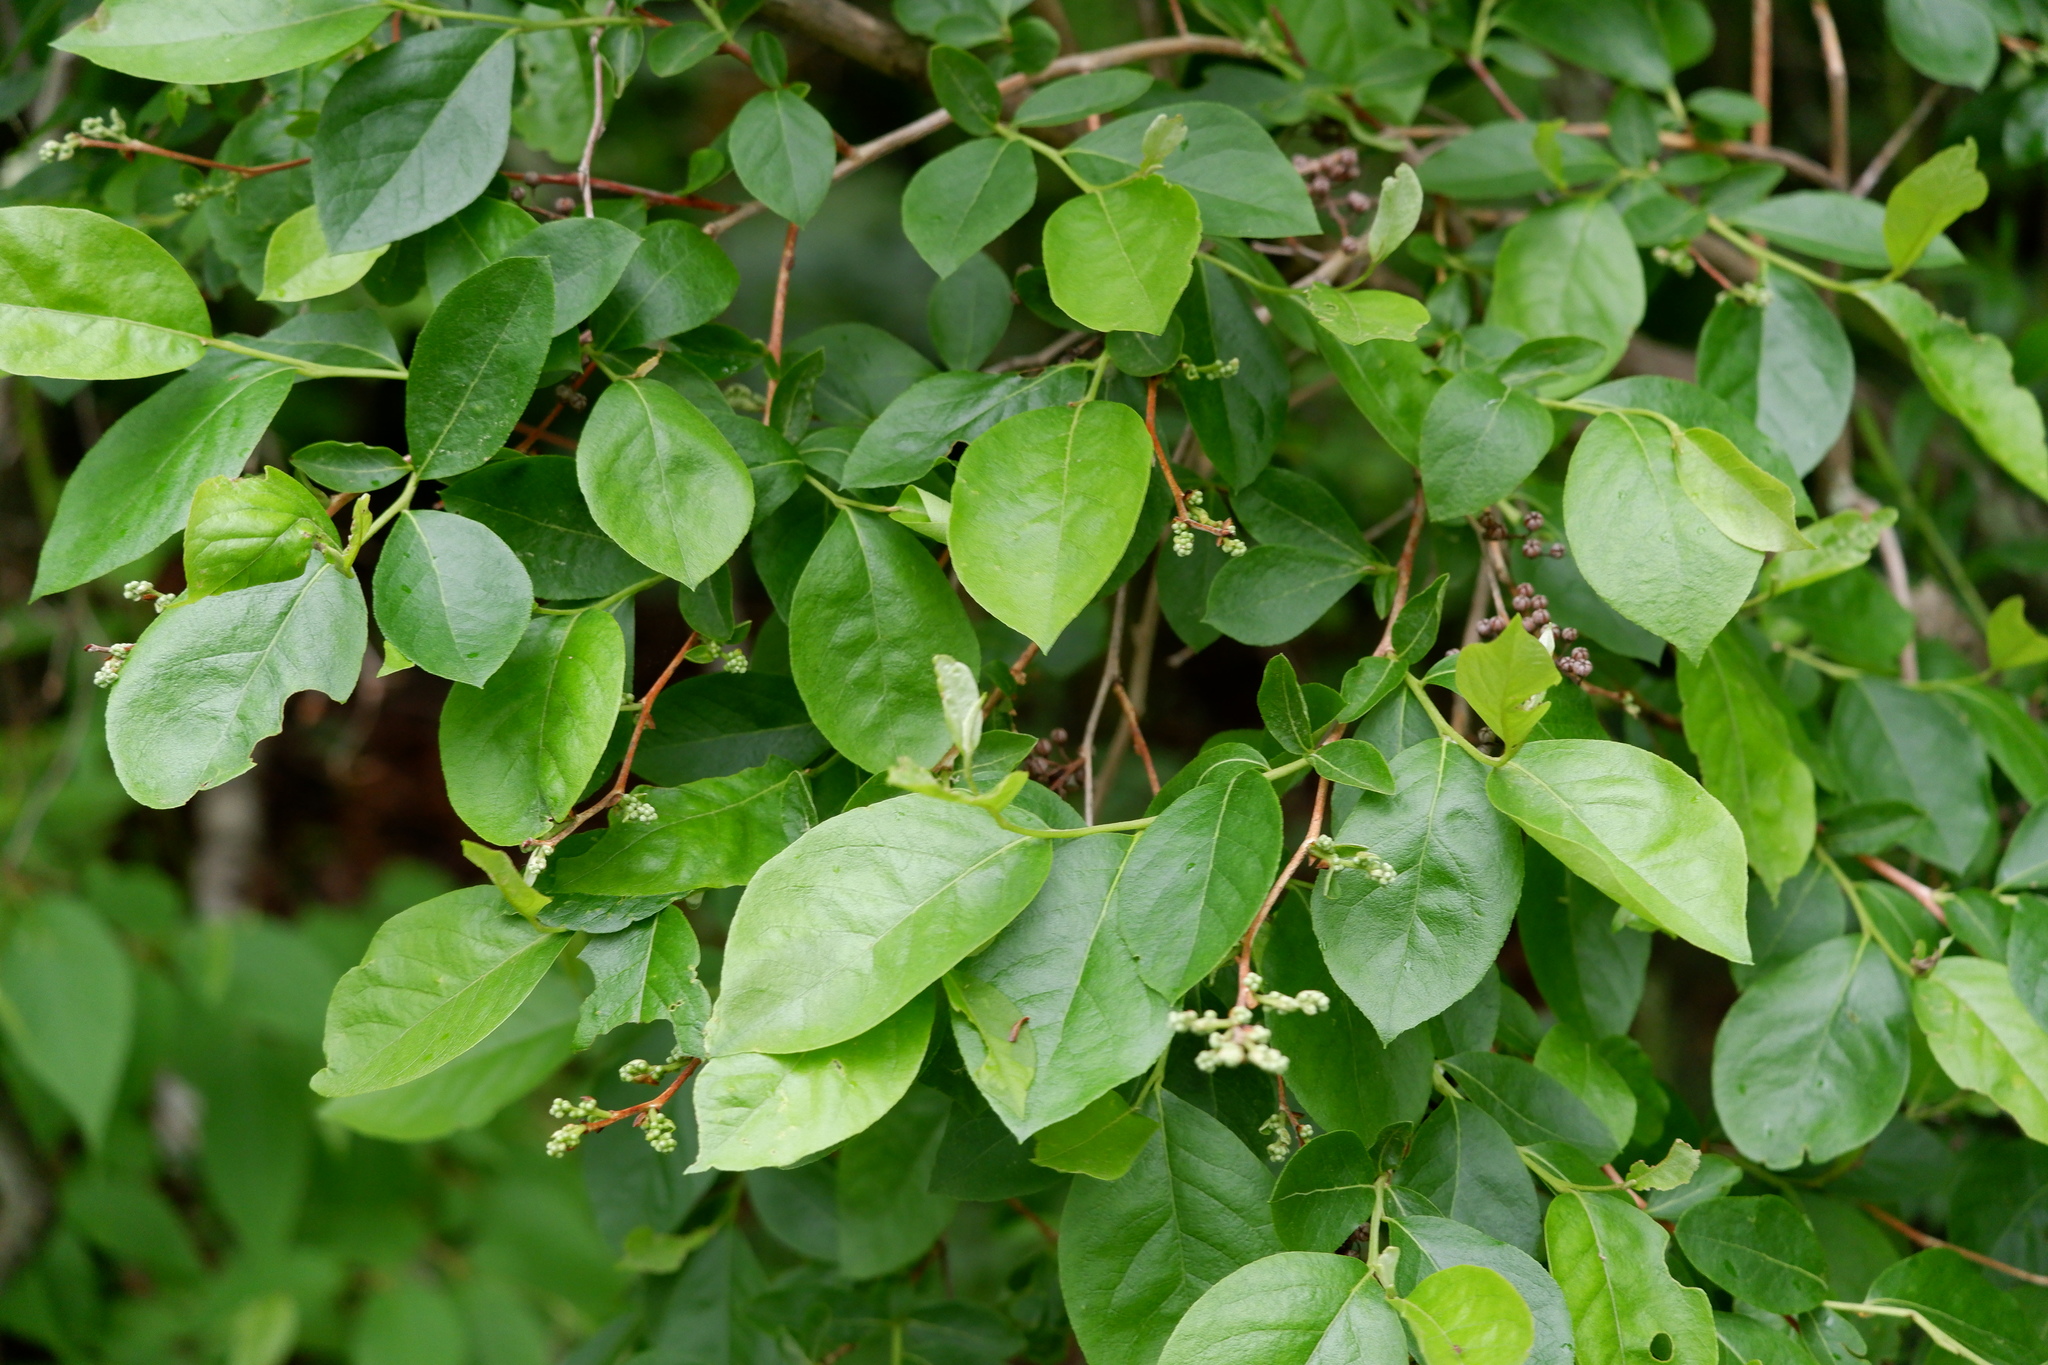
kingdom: Plantae
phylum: Tracheophyta
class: Magnoliopsida
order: Ericales
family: Ericaceae
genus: Lyonia
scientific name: Lyonia ligustrina
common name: Maleberry
